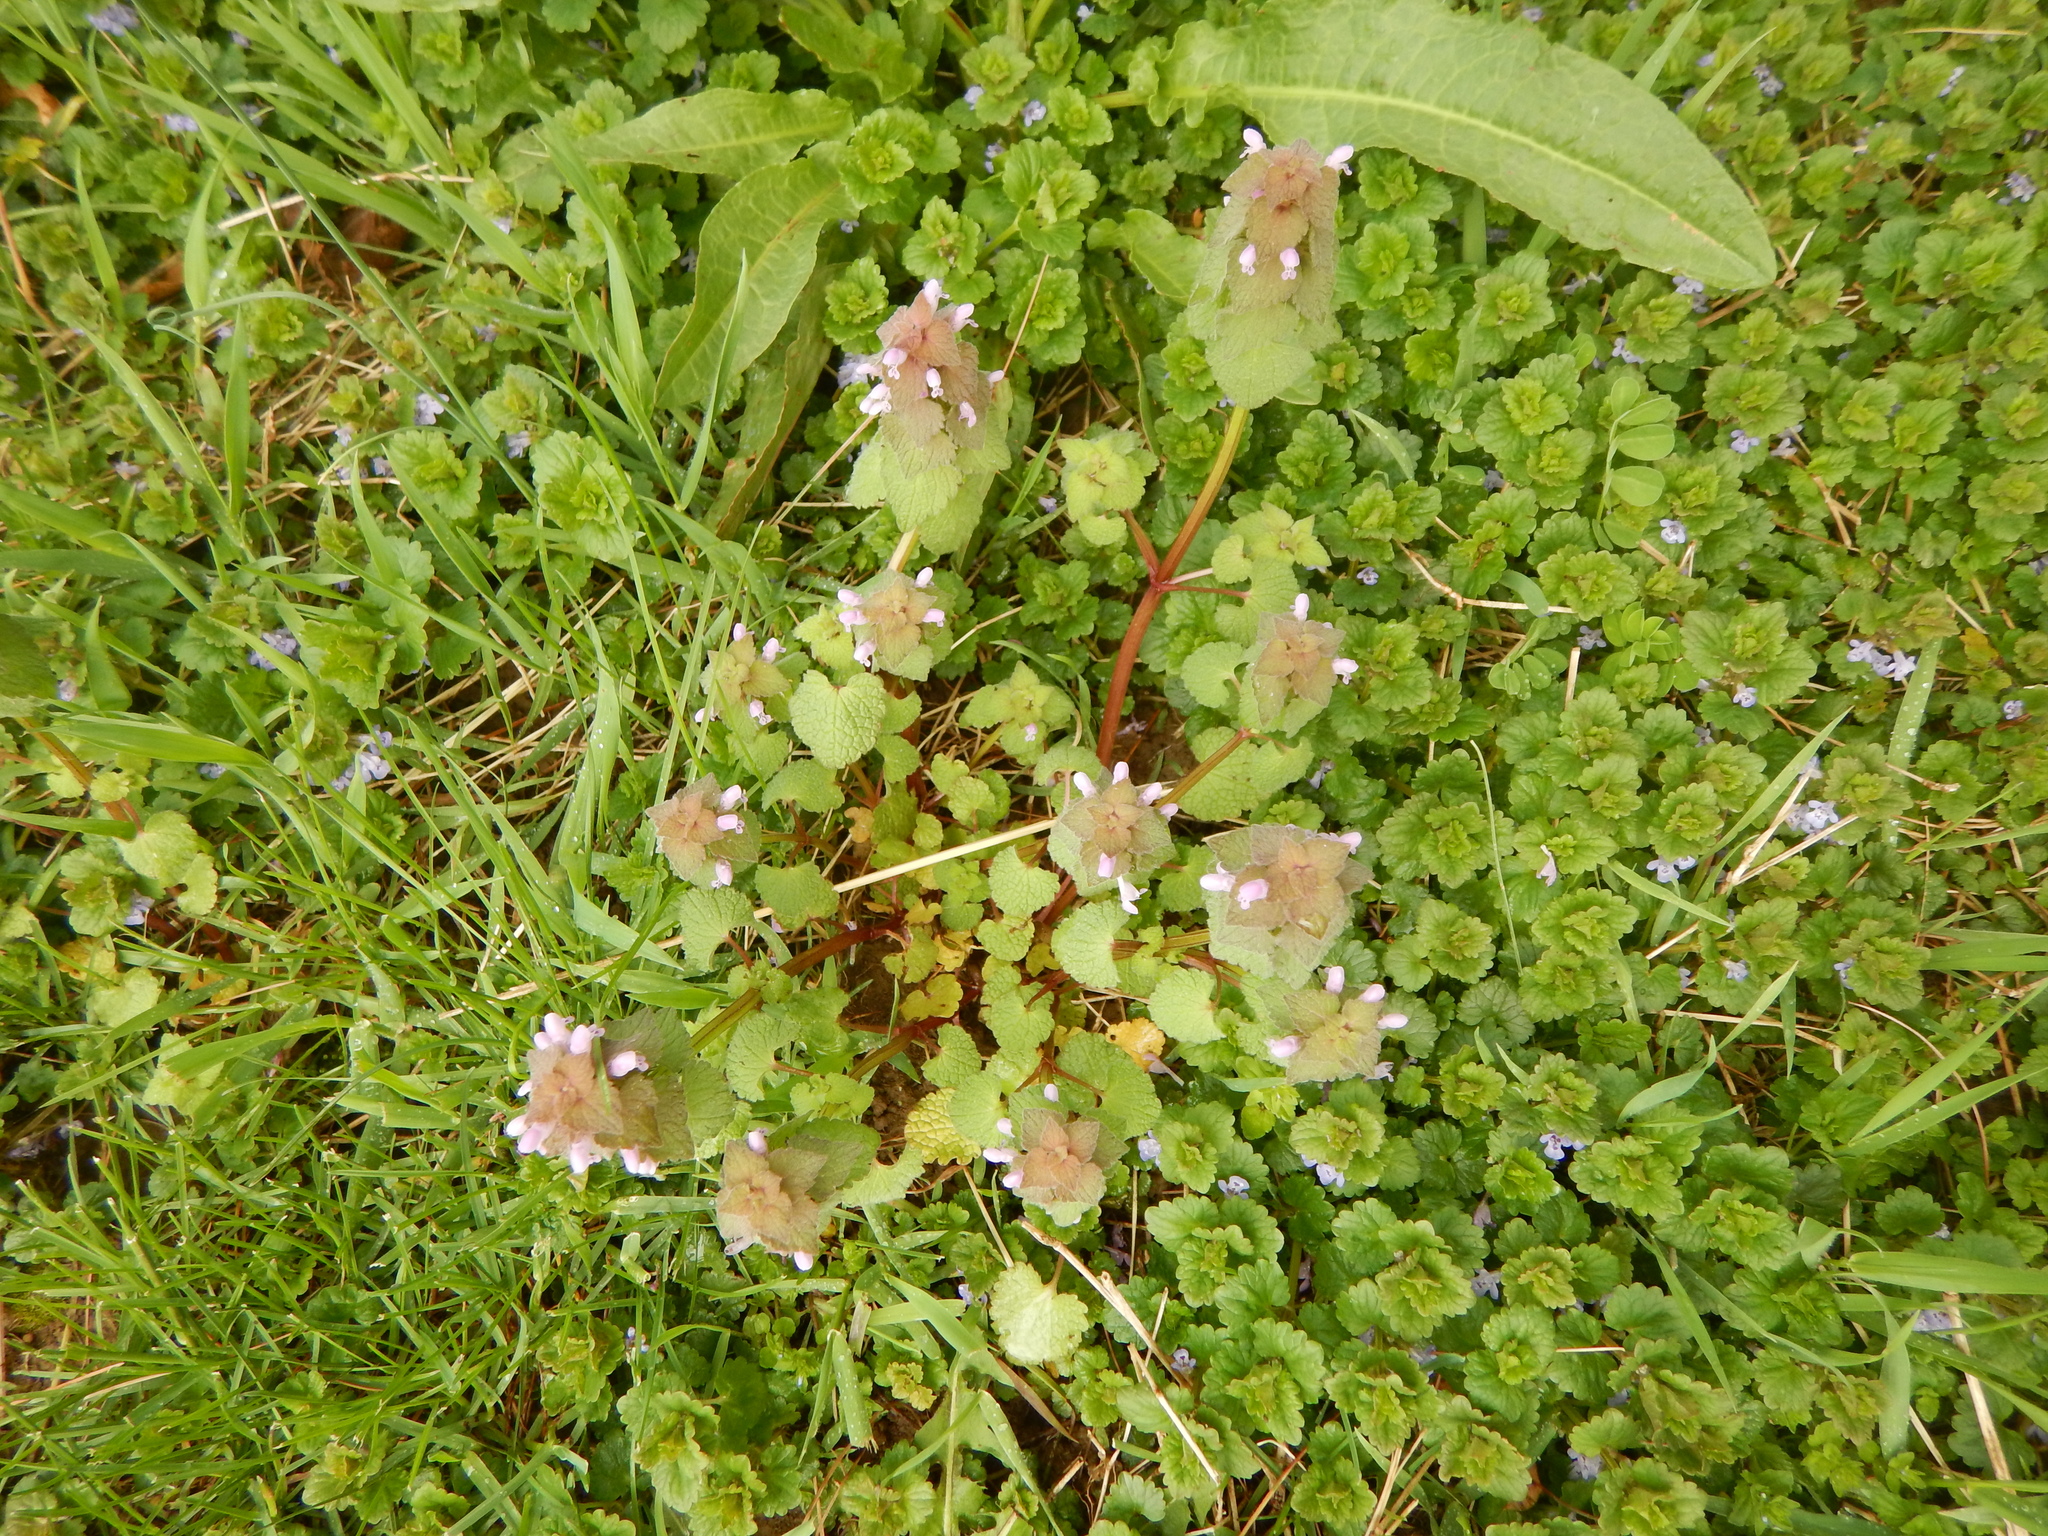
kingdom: Plantae
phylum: Tracheophyta
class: Magnoliopsida
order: Lamiales
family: Lamiaceae
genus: Lamium
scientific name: Lamium purpureum
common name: Red dead-nettle
